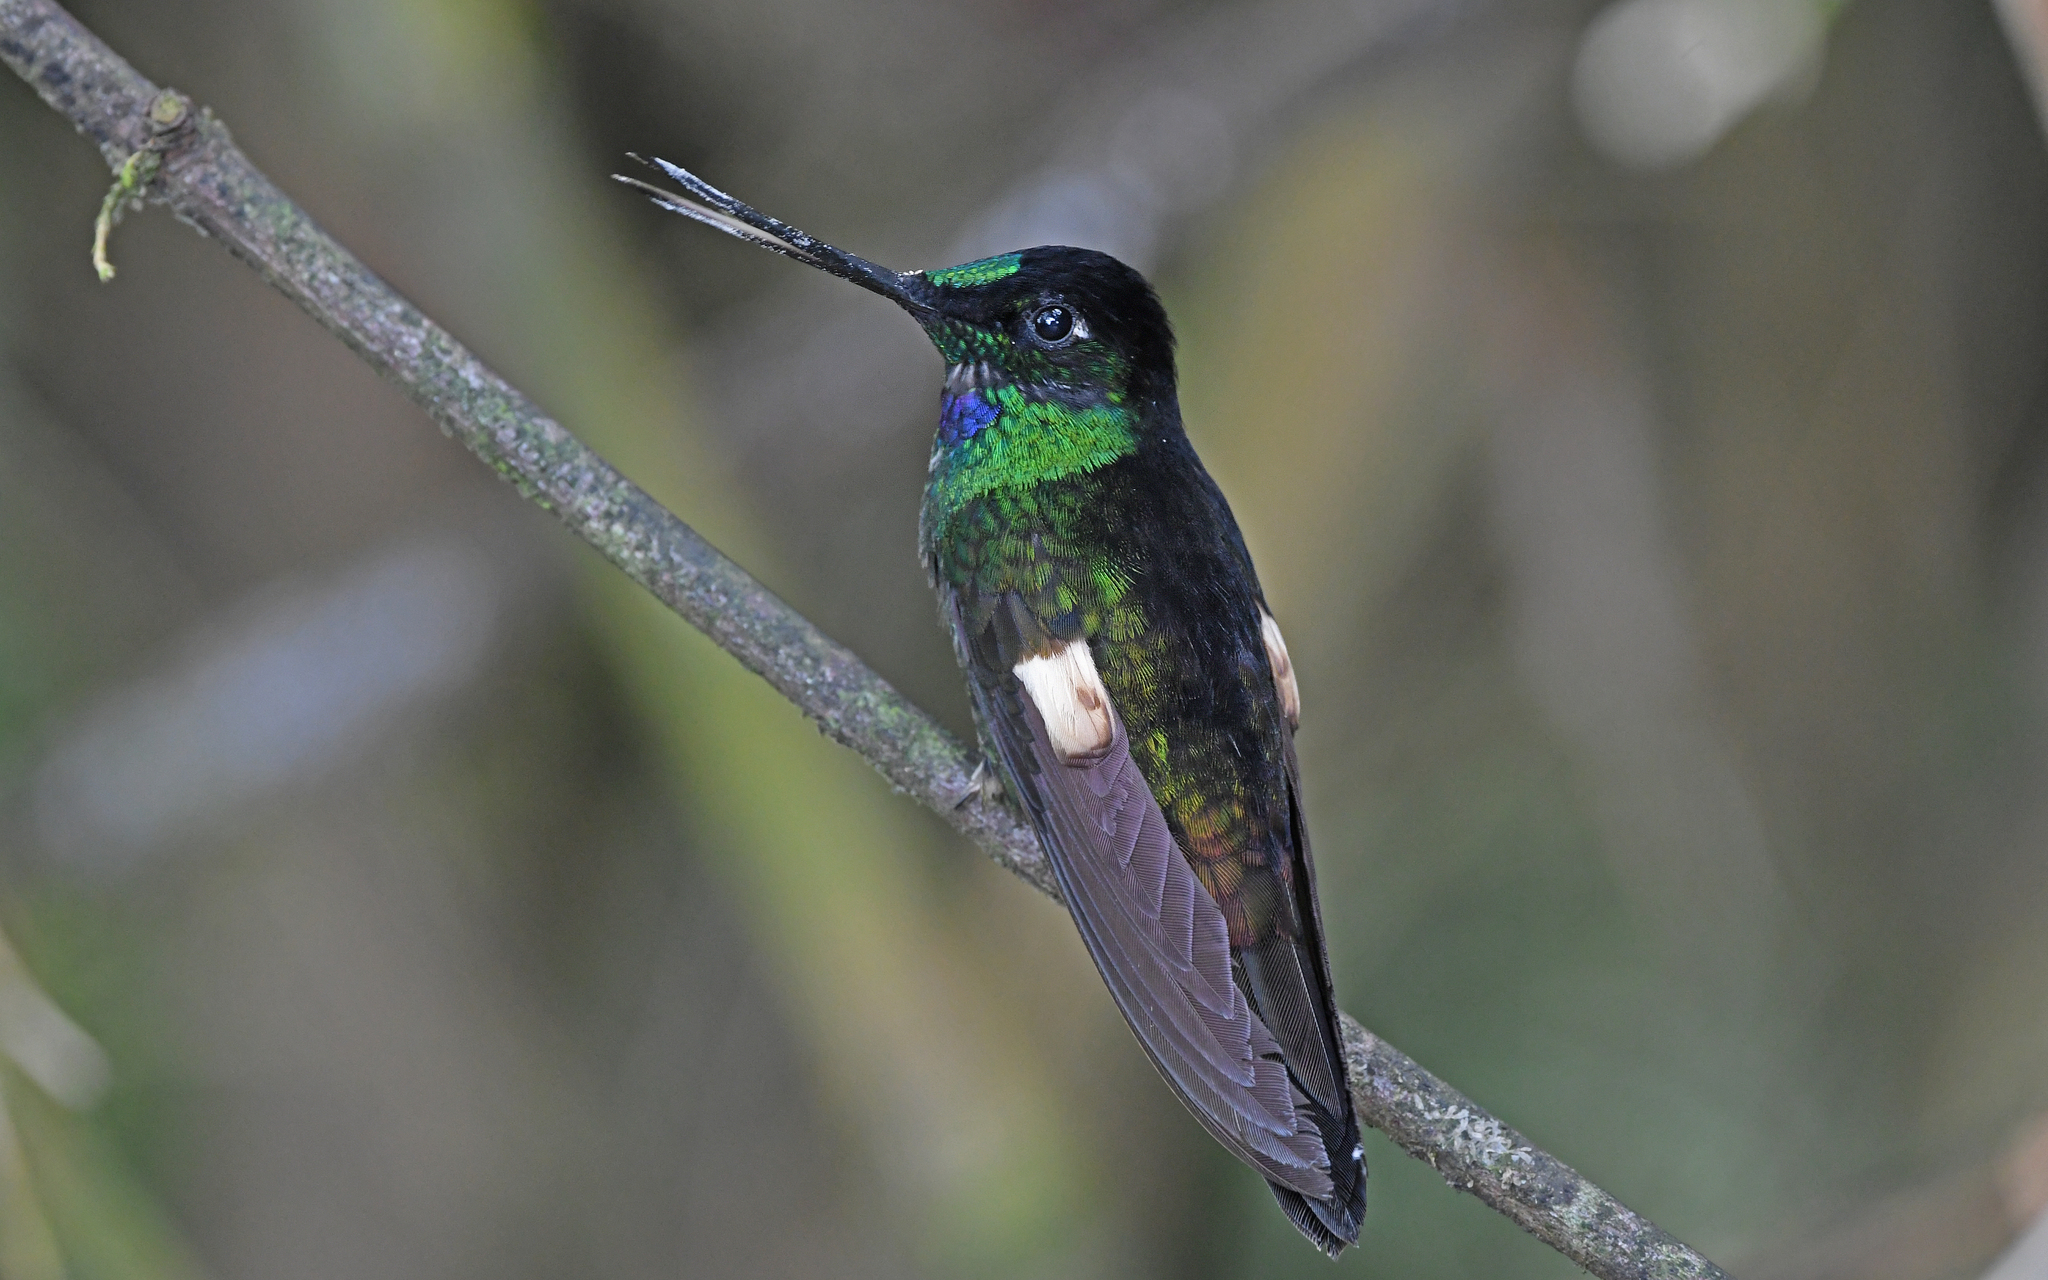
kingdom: Animalia
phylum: Chordata
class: Aves
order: Apodiformes
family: Trochilidae
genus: Coeligena
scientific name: Coeligena lutetiae
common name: Buff-winged starfrontlet
